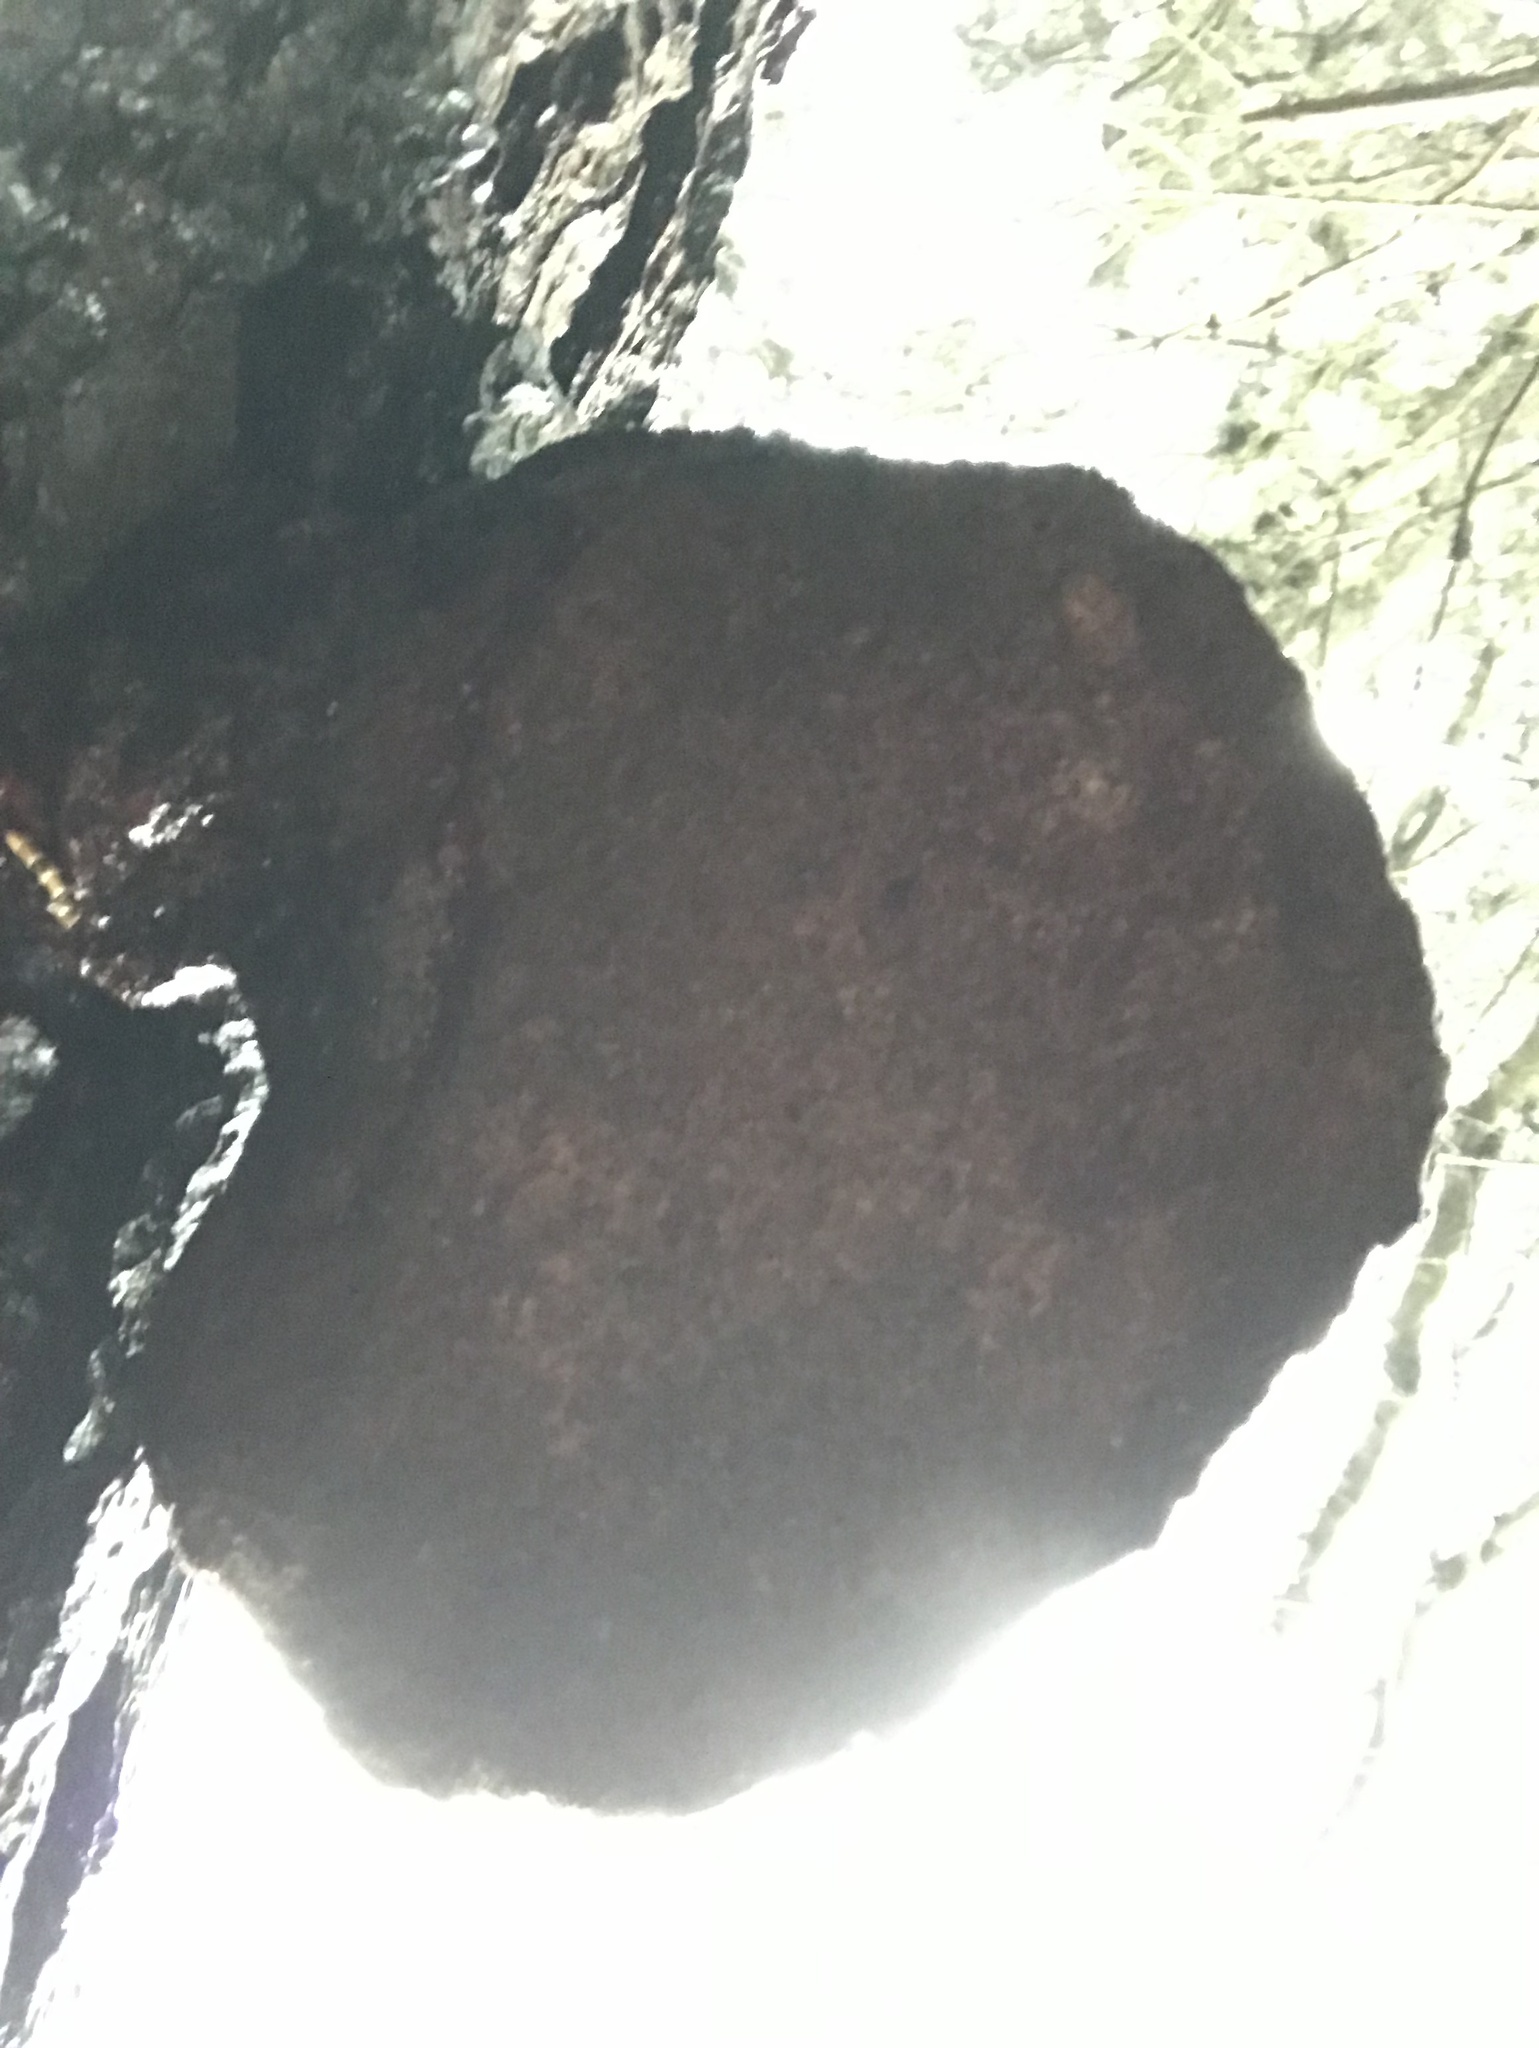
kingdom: Fungi
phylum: Basidiomycota
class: Agaricomycetes
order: Polyporales
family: Polyporaceae
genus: Ganoderma
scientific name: Ganoderma oregonense
